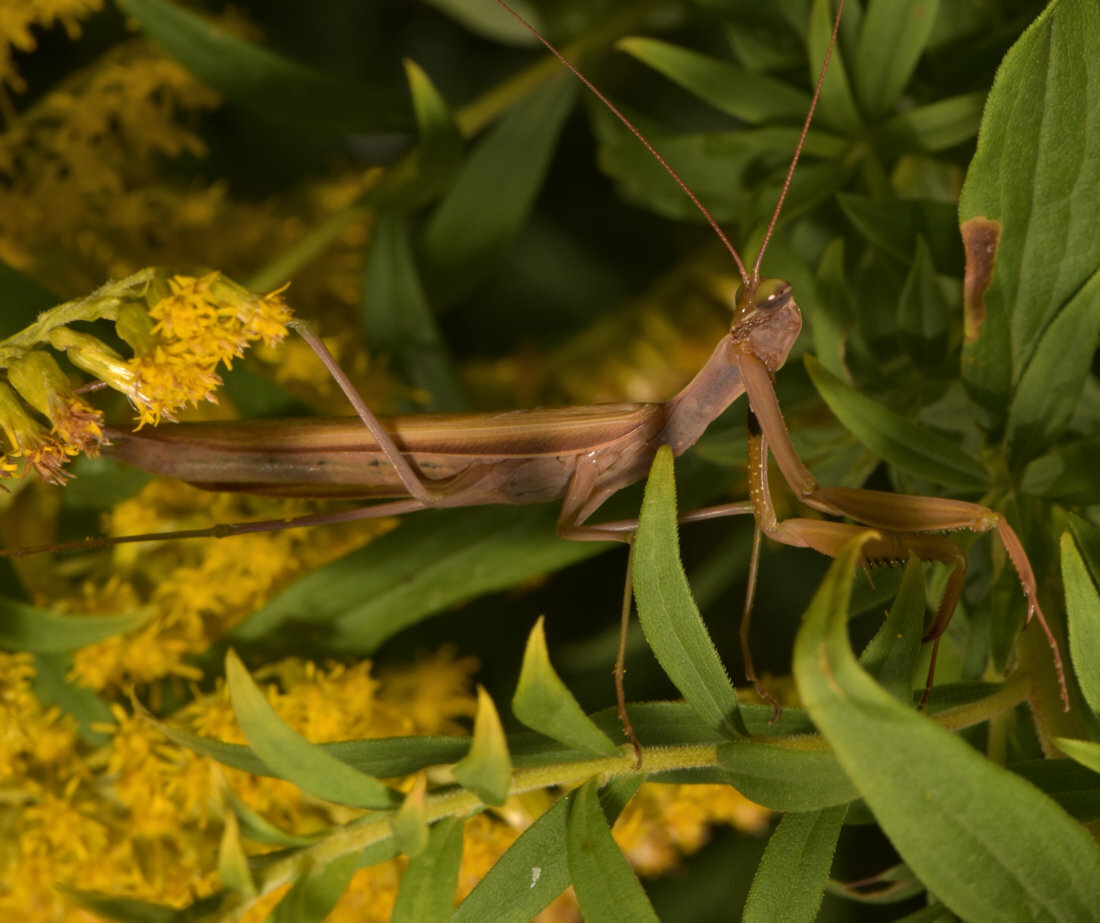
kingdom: Animalia
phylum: Arthropoda
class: Insecta
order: Mantodea
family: Mantidae
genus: Mantis
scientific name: Mantis religiosa
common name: Praying mantis
